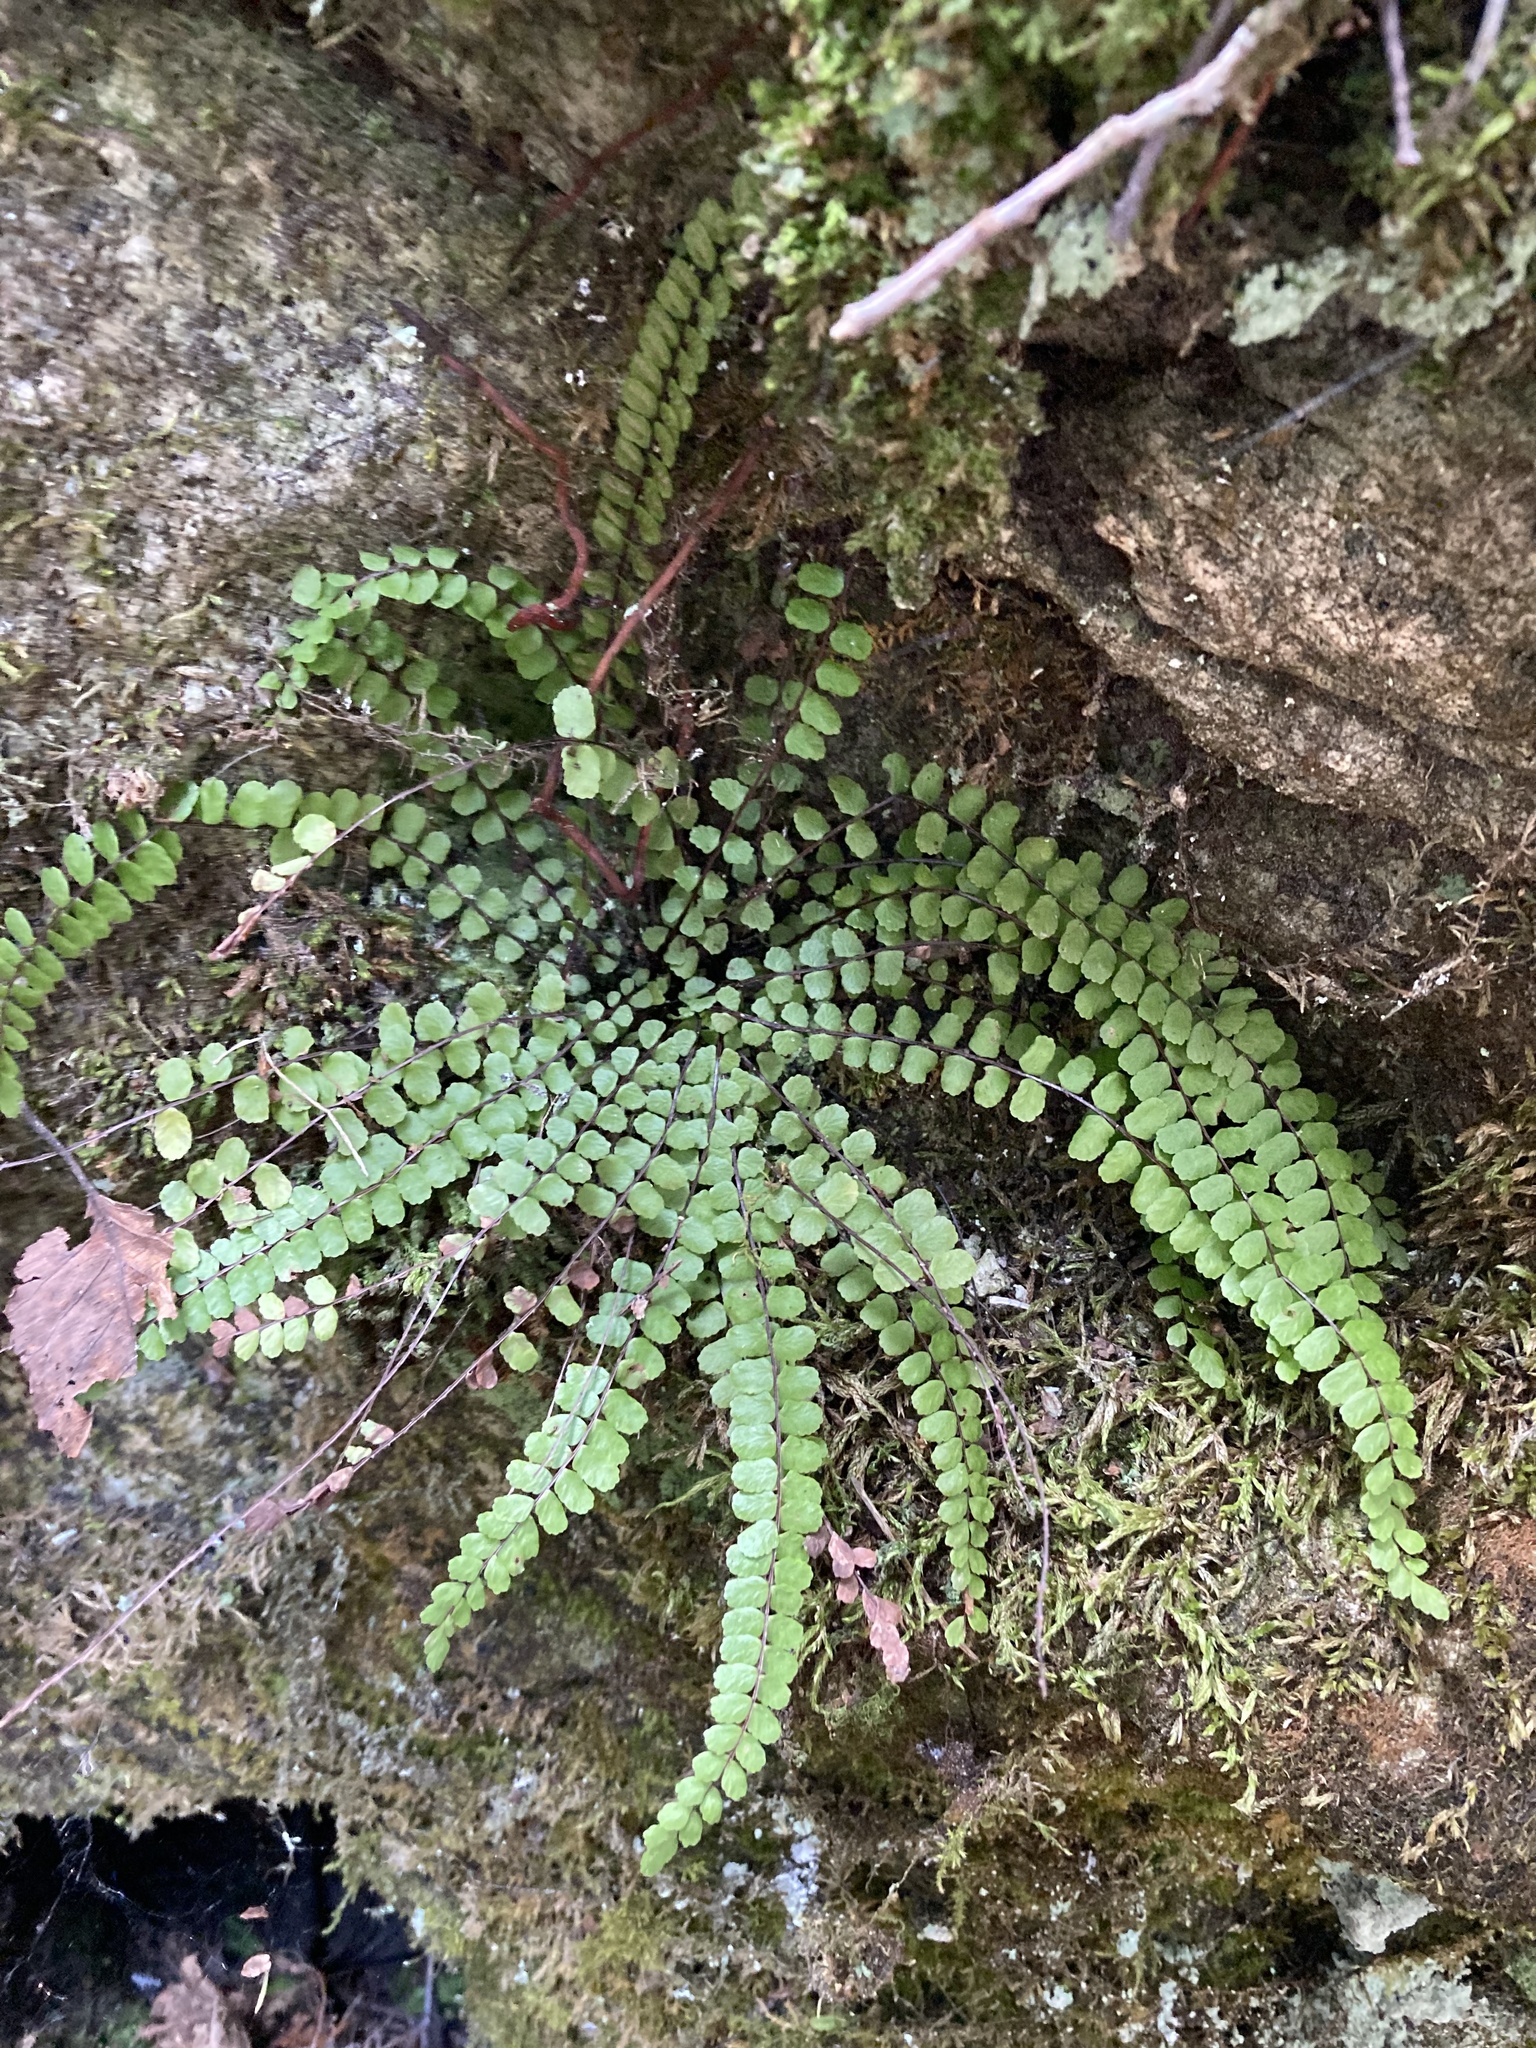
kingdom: Plantae
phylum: Tracheophyta
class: Polypodiopsida
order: Polypodiales
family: Aspleniaceae
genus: Asplenium
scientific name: Asplenium trichomanes
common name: Maidenhair spleenwort
